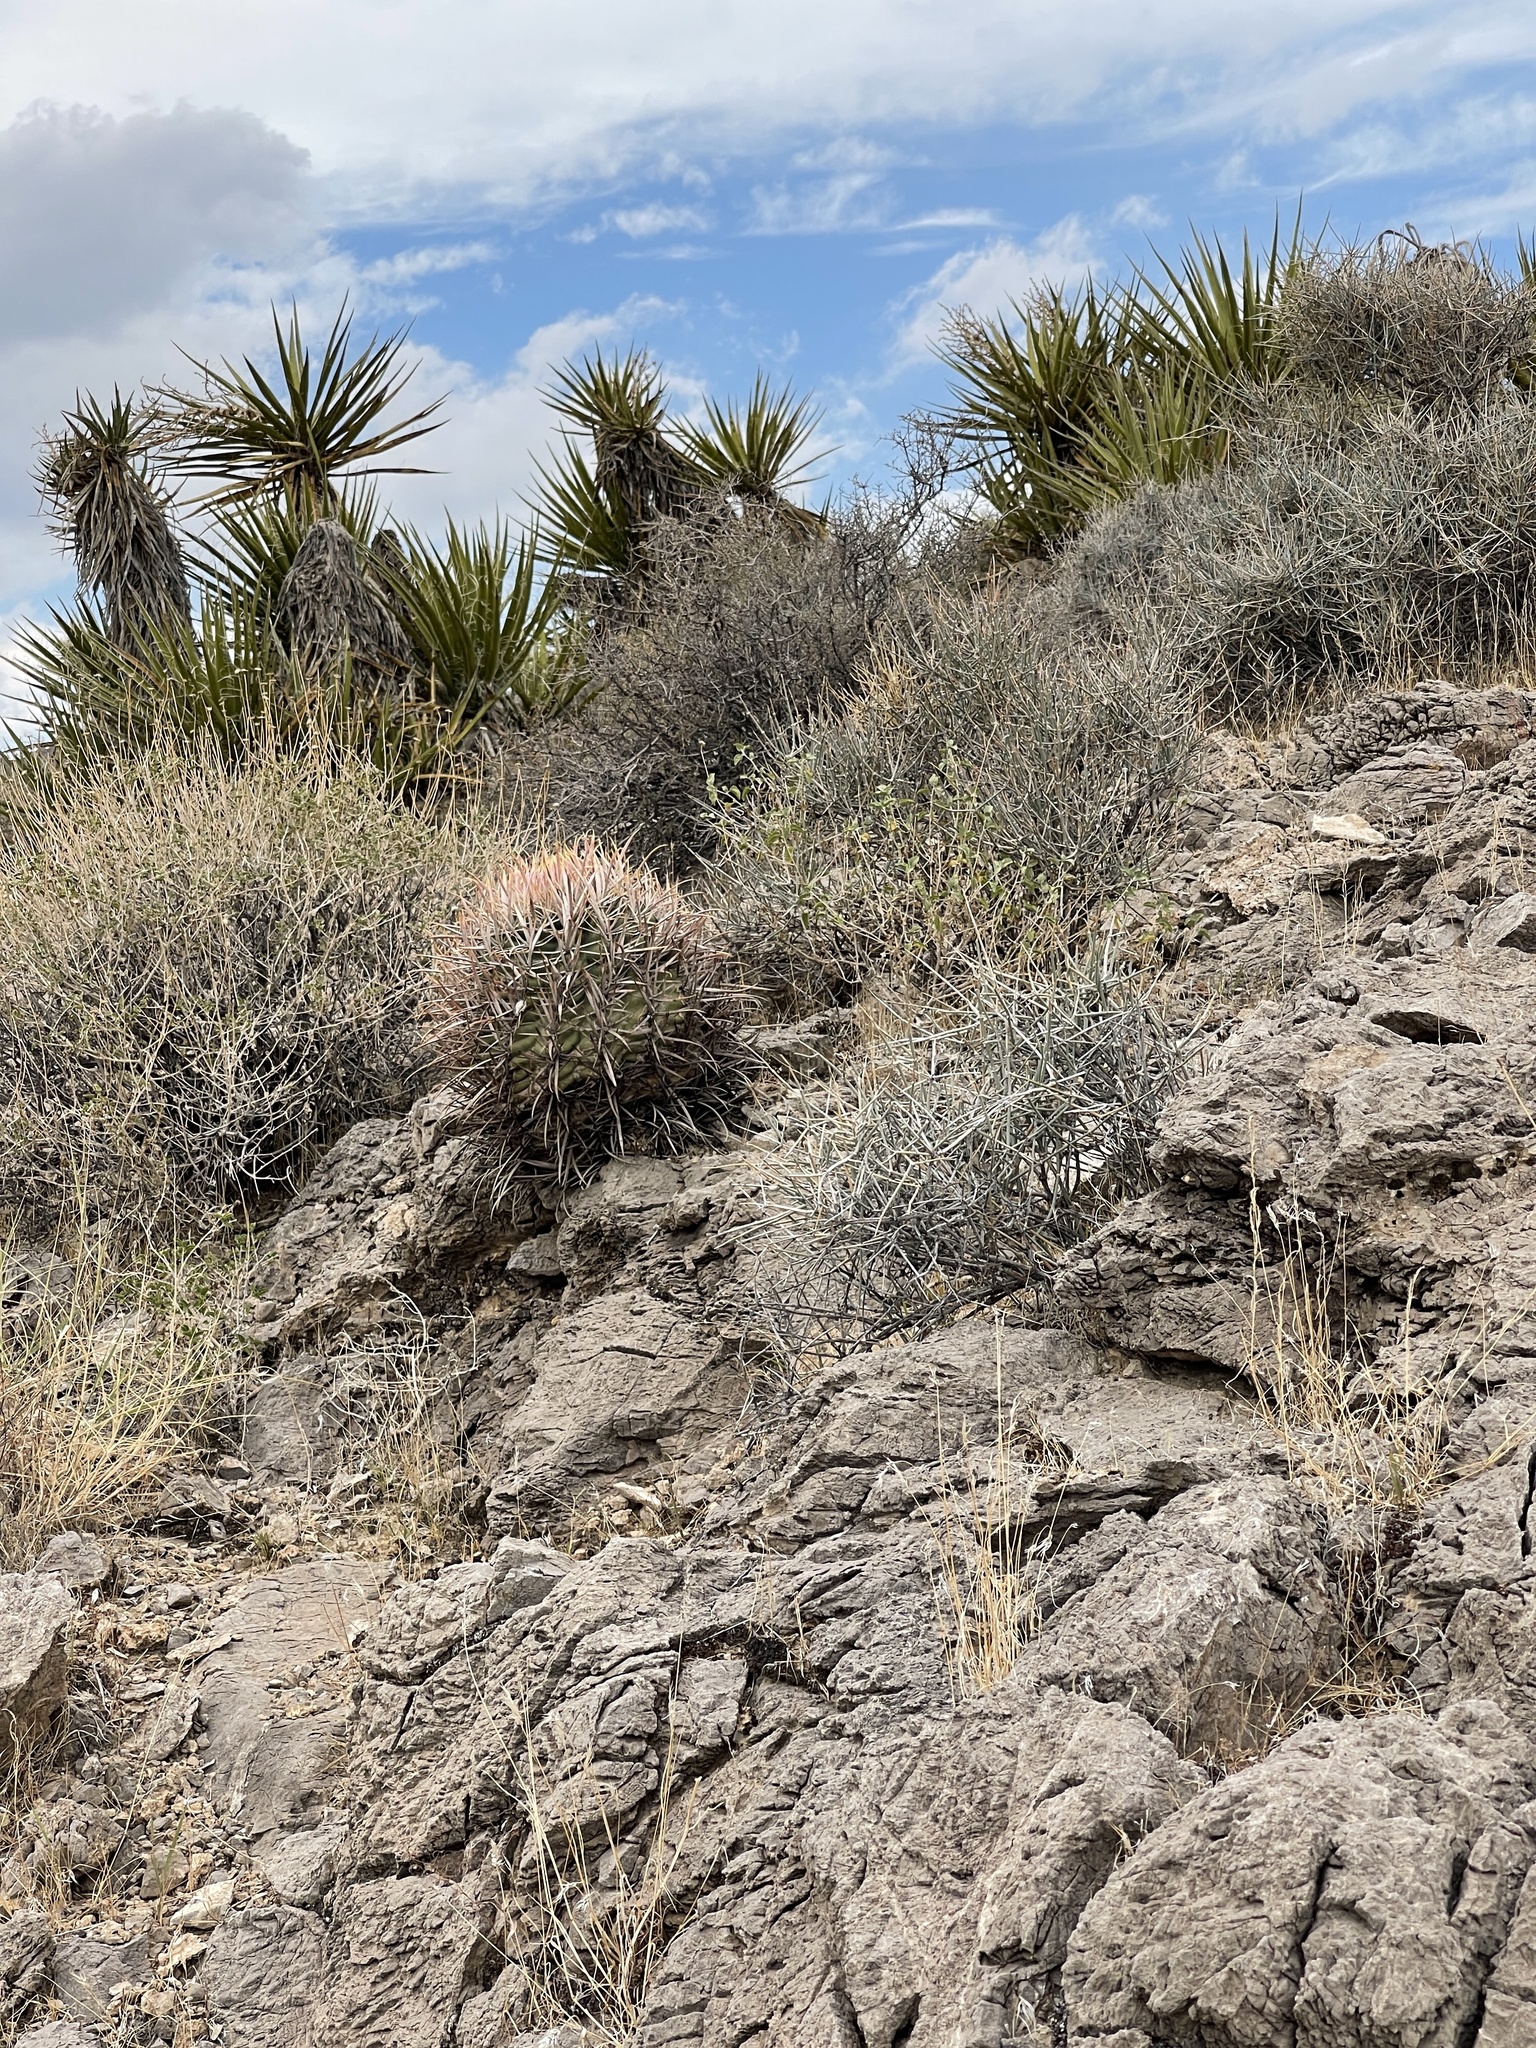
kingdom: Plantae
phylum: Tracheophyta
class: Magnoliopsida
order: Caryophyllales
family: Cactaceae
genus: Echinocactus
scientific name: Echinocactus polycephalus
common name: Cottontop cactus
